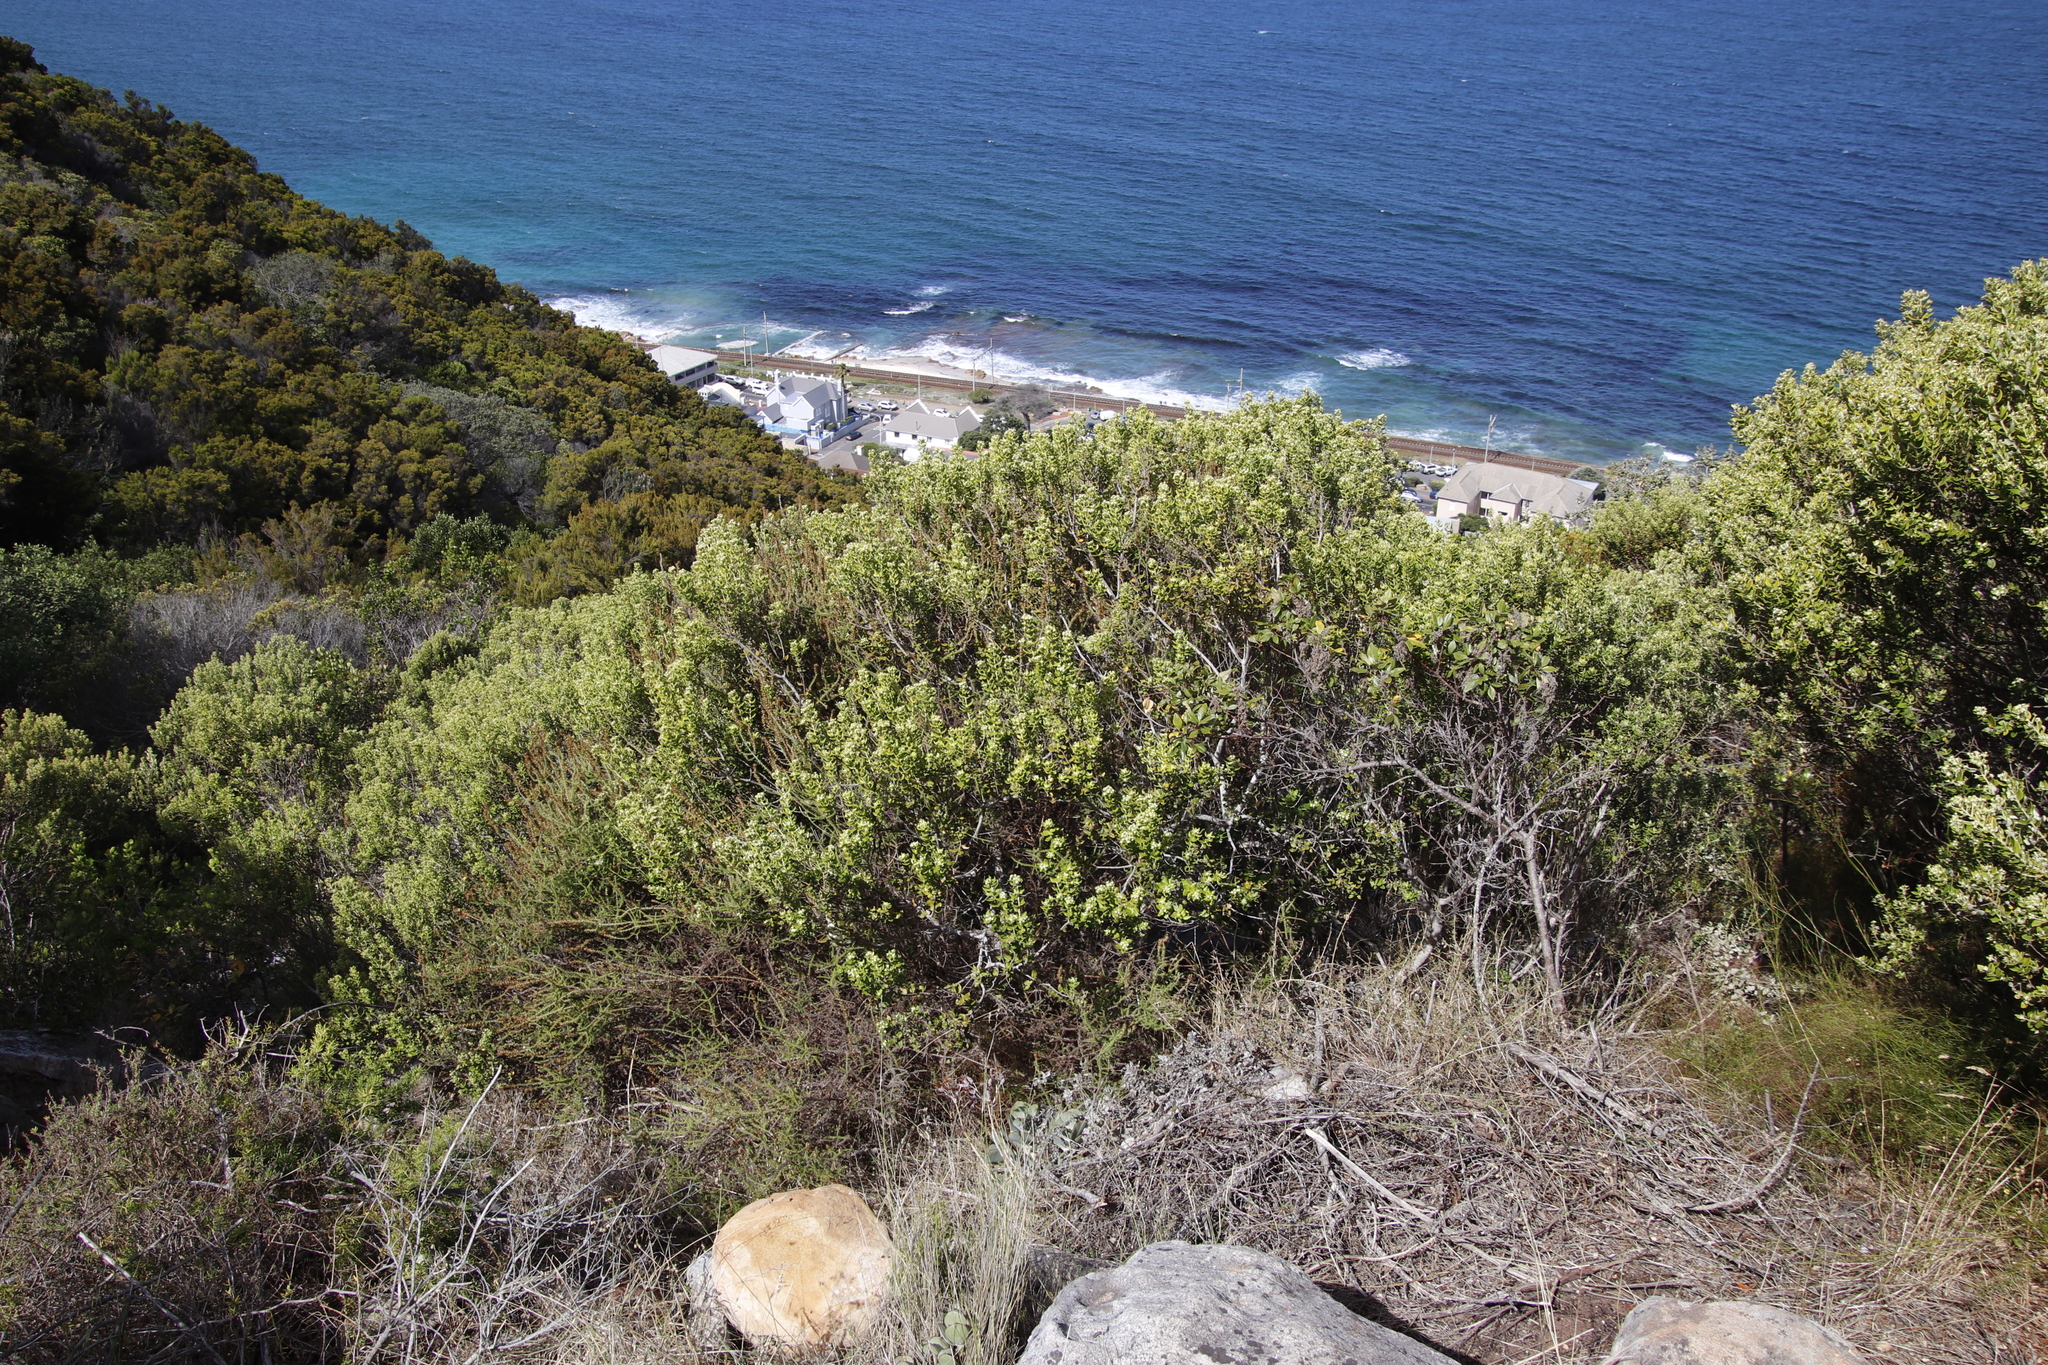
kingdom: Plantae
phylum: Tracheophyta
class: Magnoliopsida
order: Rosales
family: Rhamnaceae
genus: Phylica
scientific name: Phylica buxifolia
